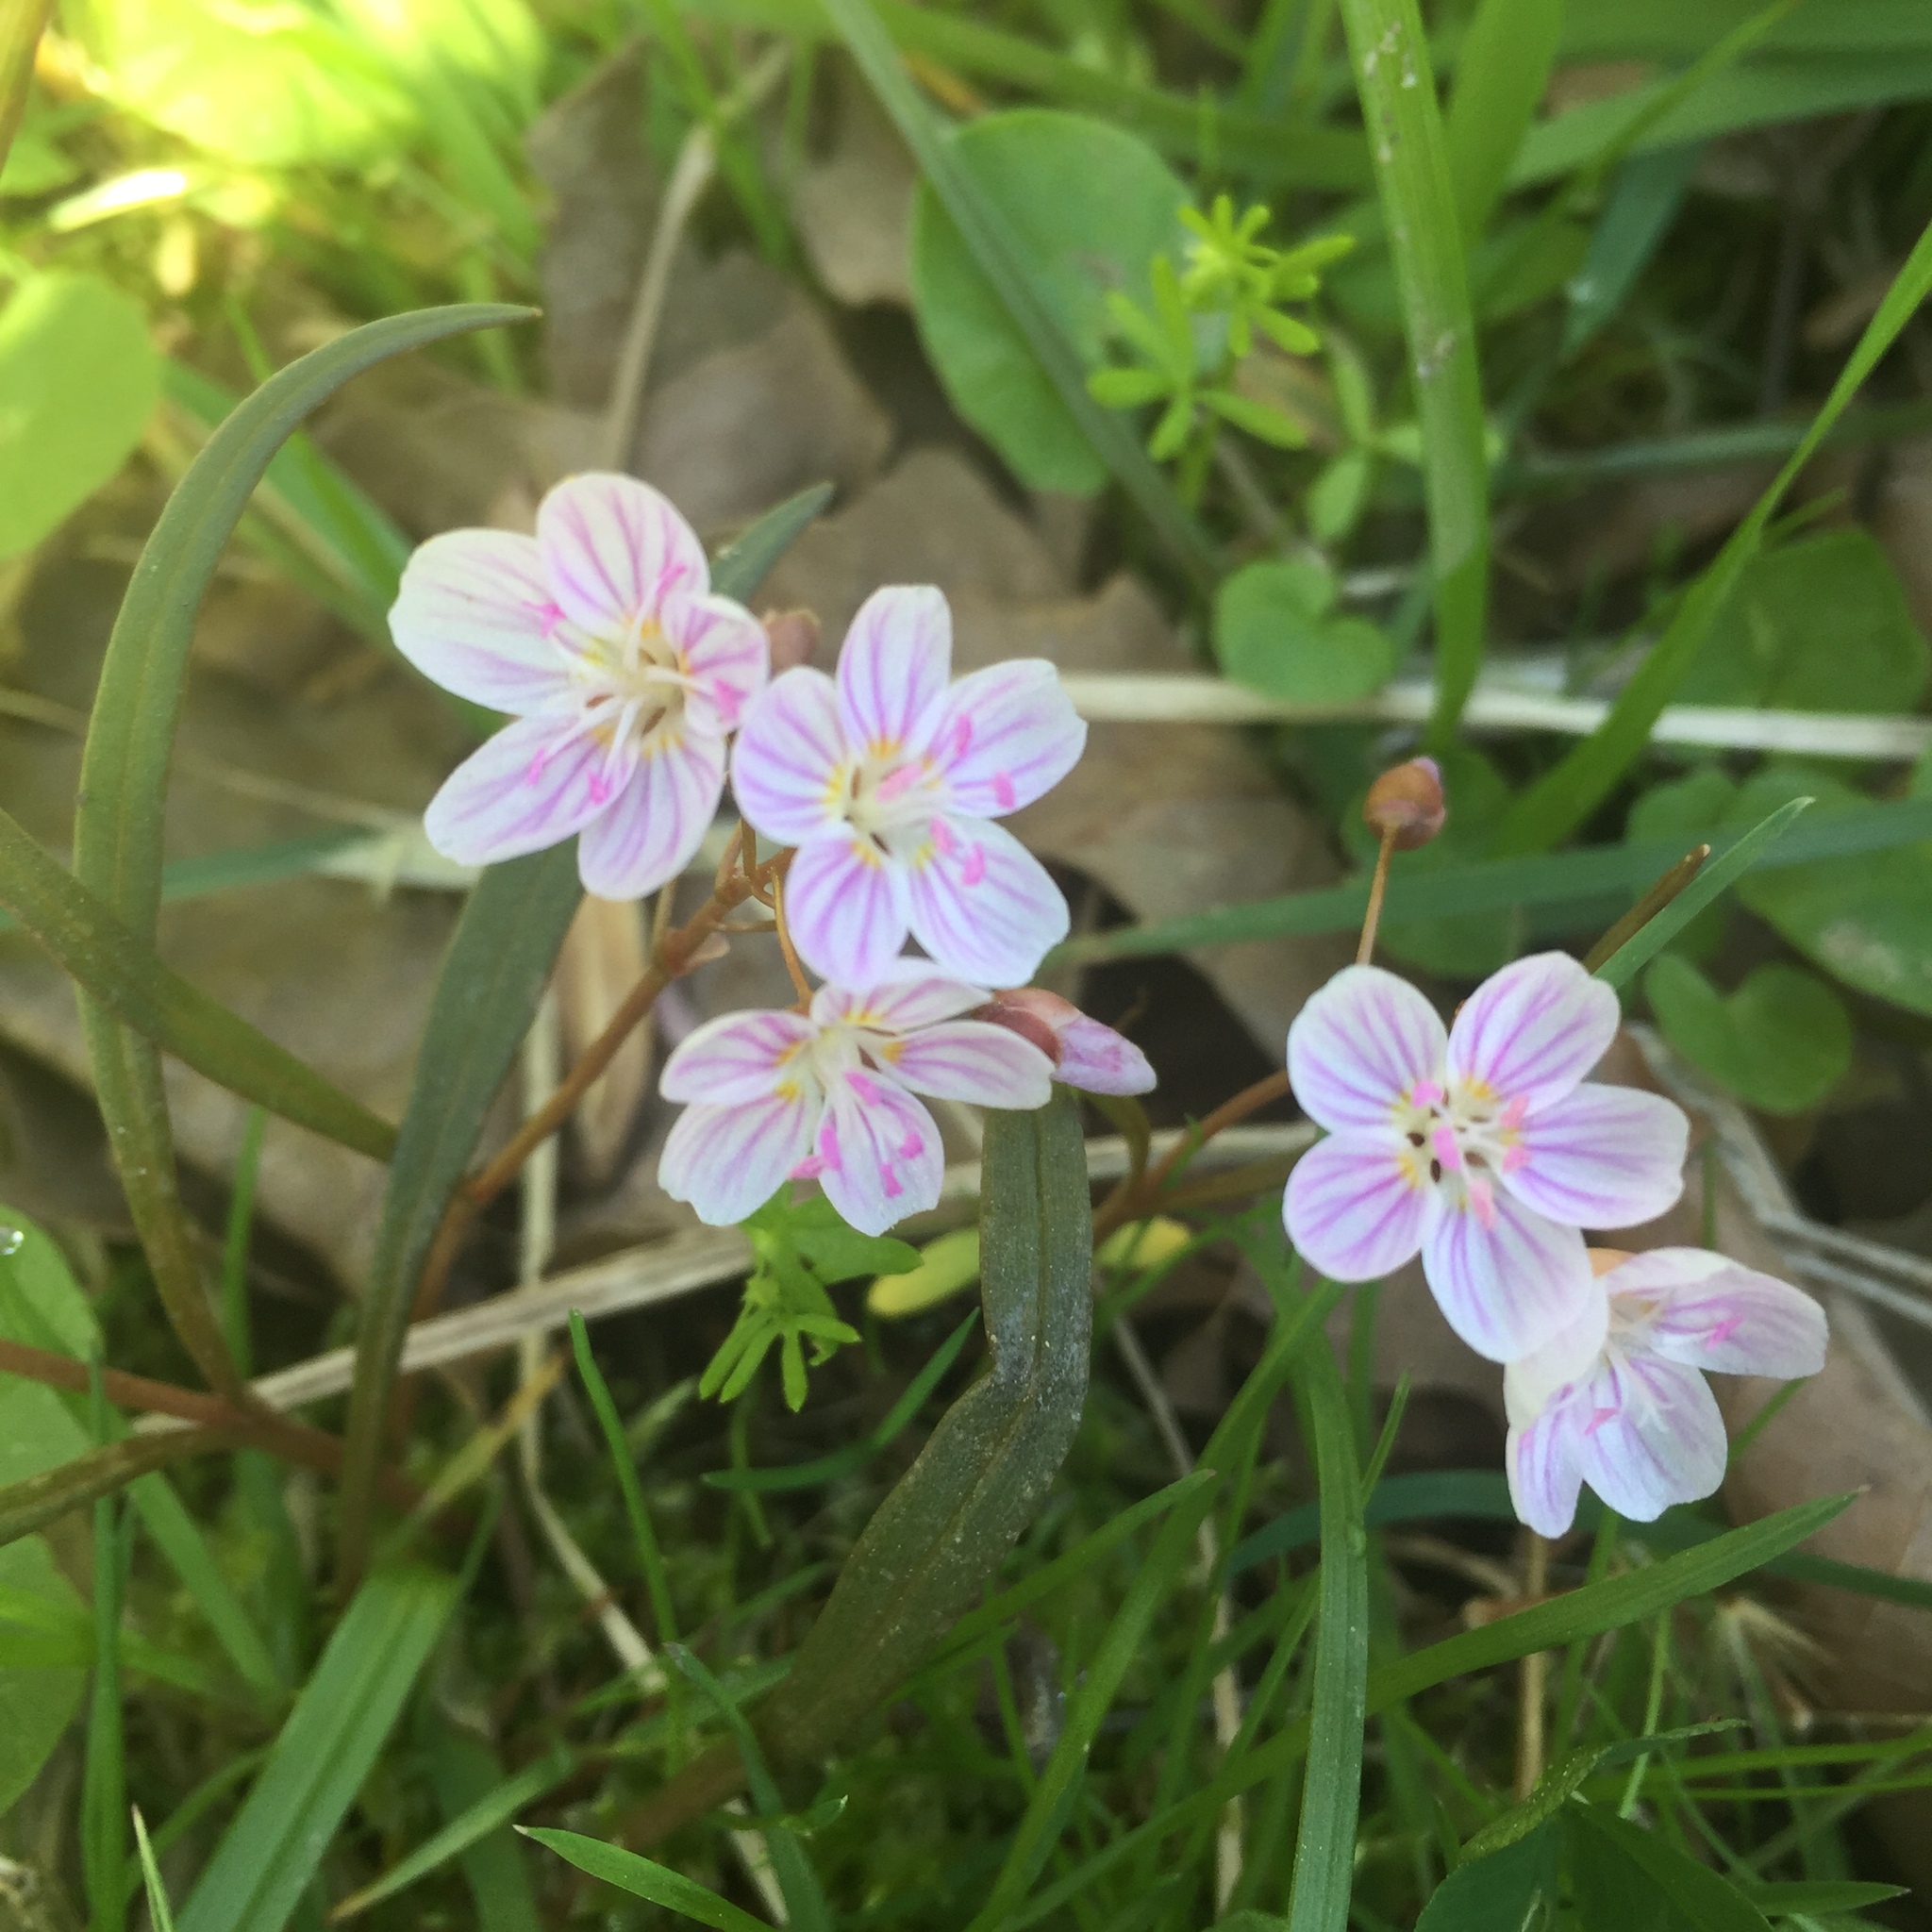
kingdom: Plantae
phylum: Tracheophyta
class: Magnoliopsida
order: Caryophyllales
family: Montiaceae
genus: Claytonia
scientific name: Claytonia virginica
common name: Virginia springbeauty
